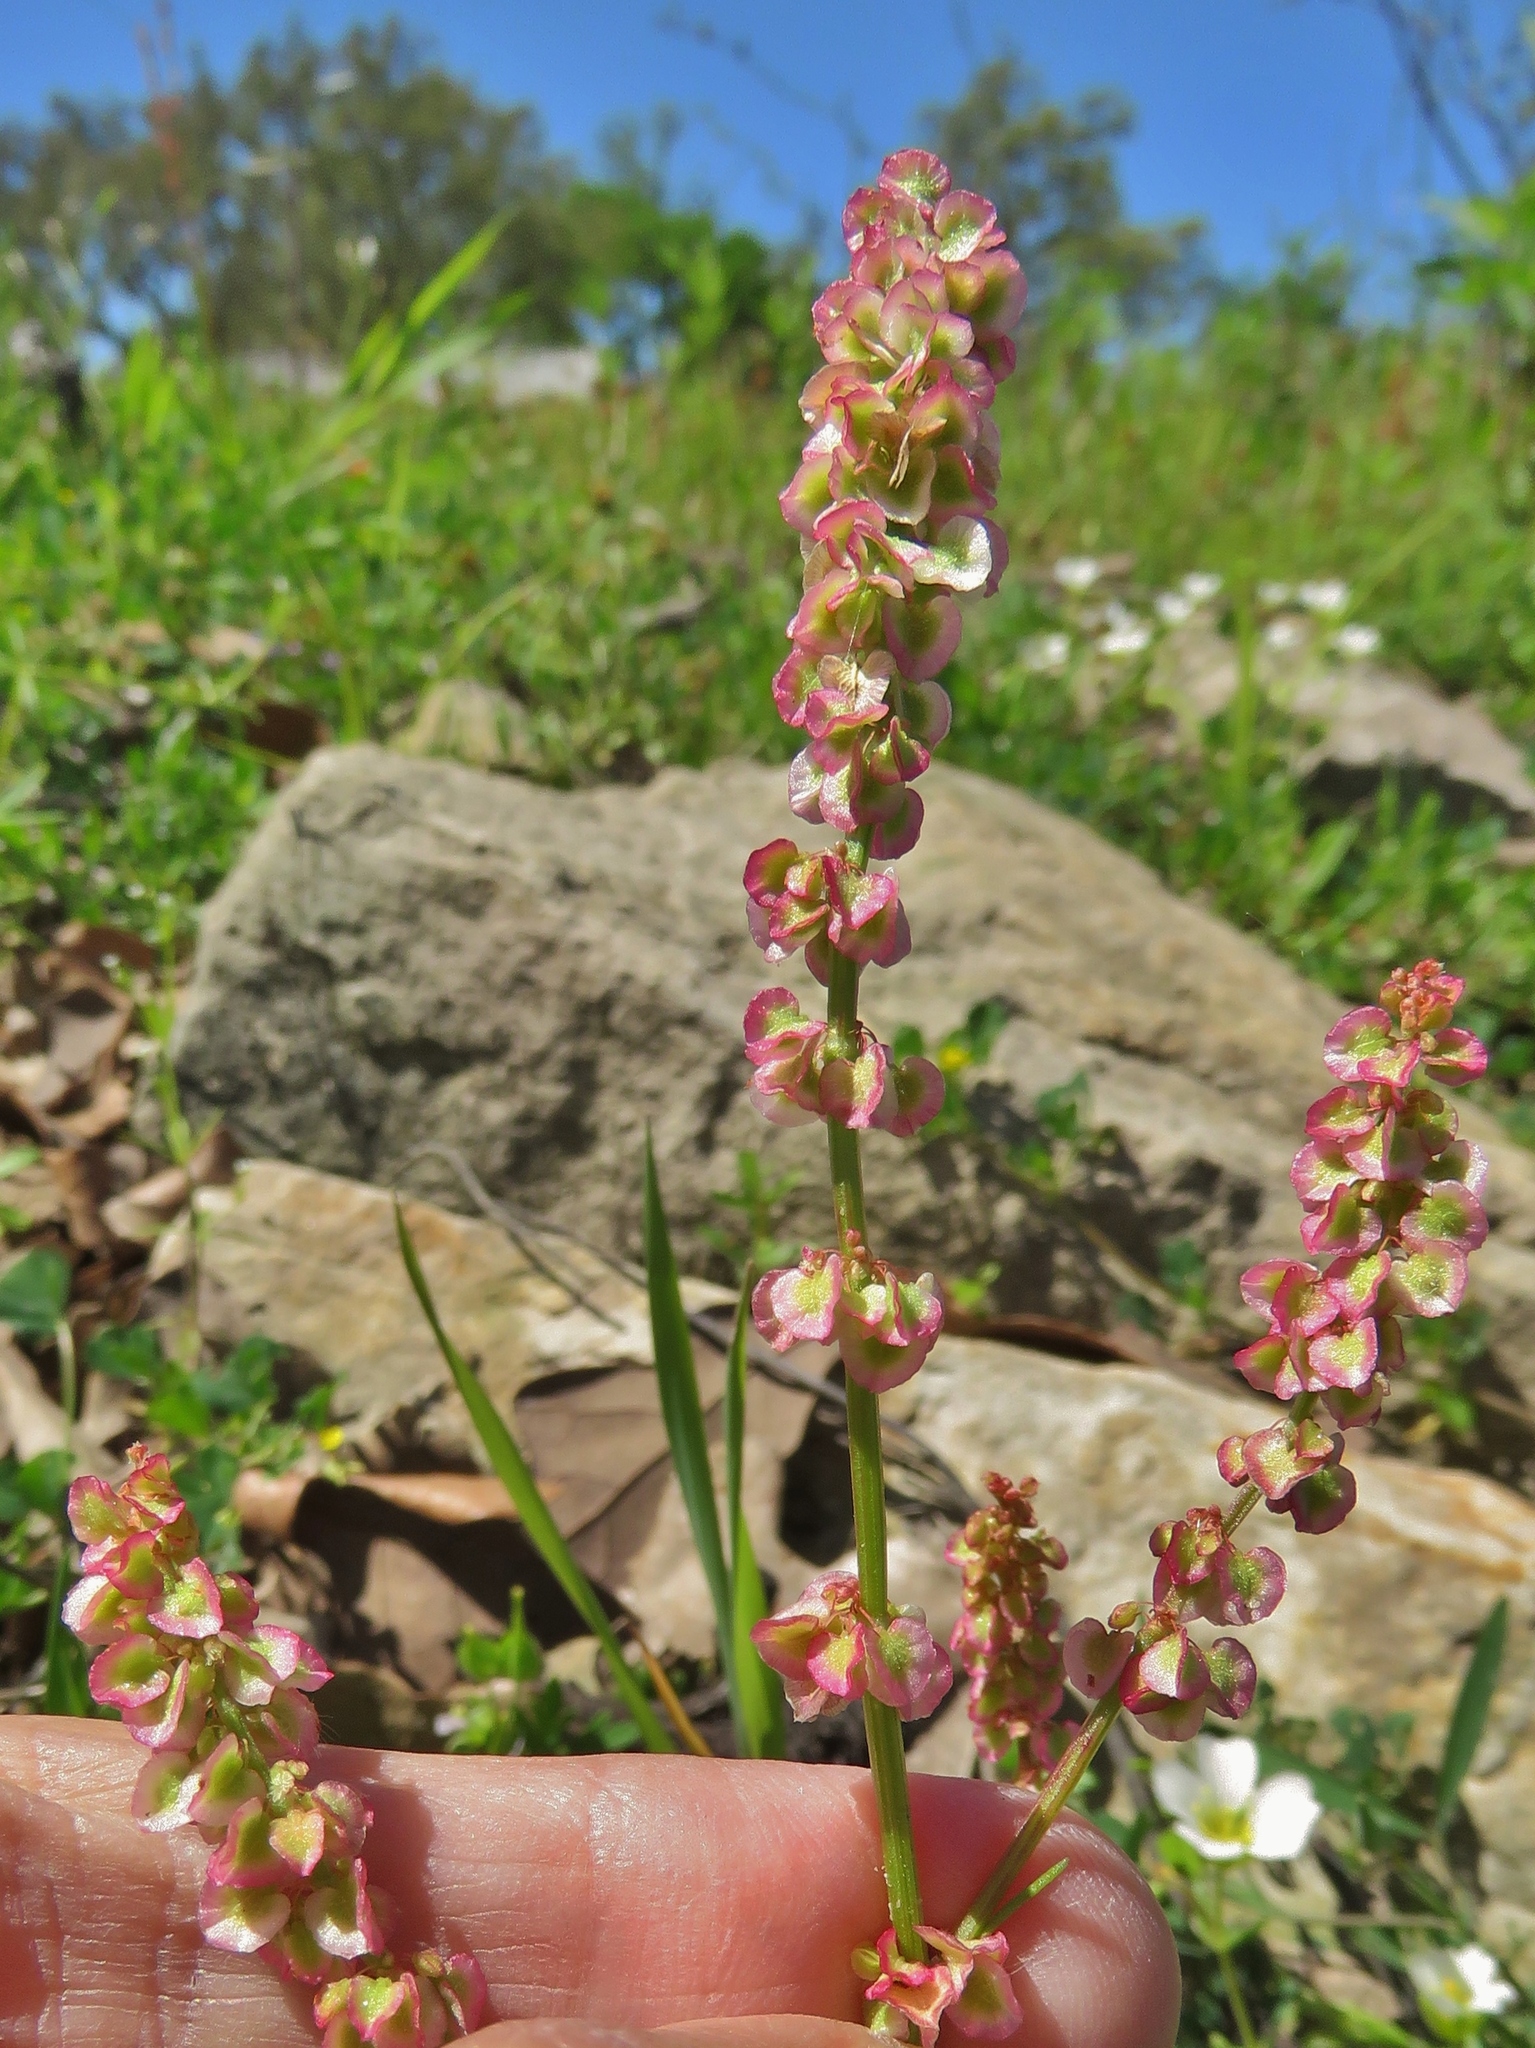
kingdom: Plantae
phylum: Tracheophyta
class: Magnoliopsida
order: Caryophyllales
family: Polygonaceae
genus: Rumex
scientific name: Rumex hastatulus
